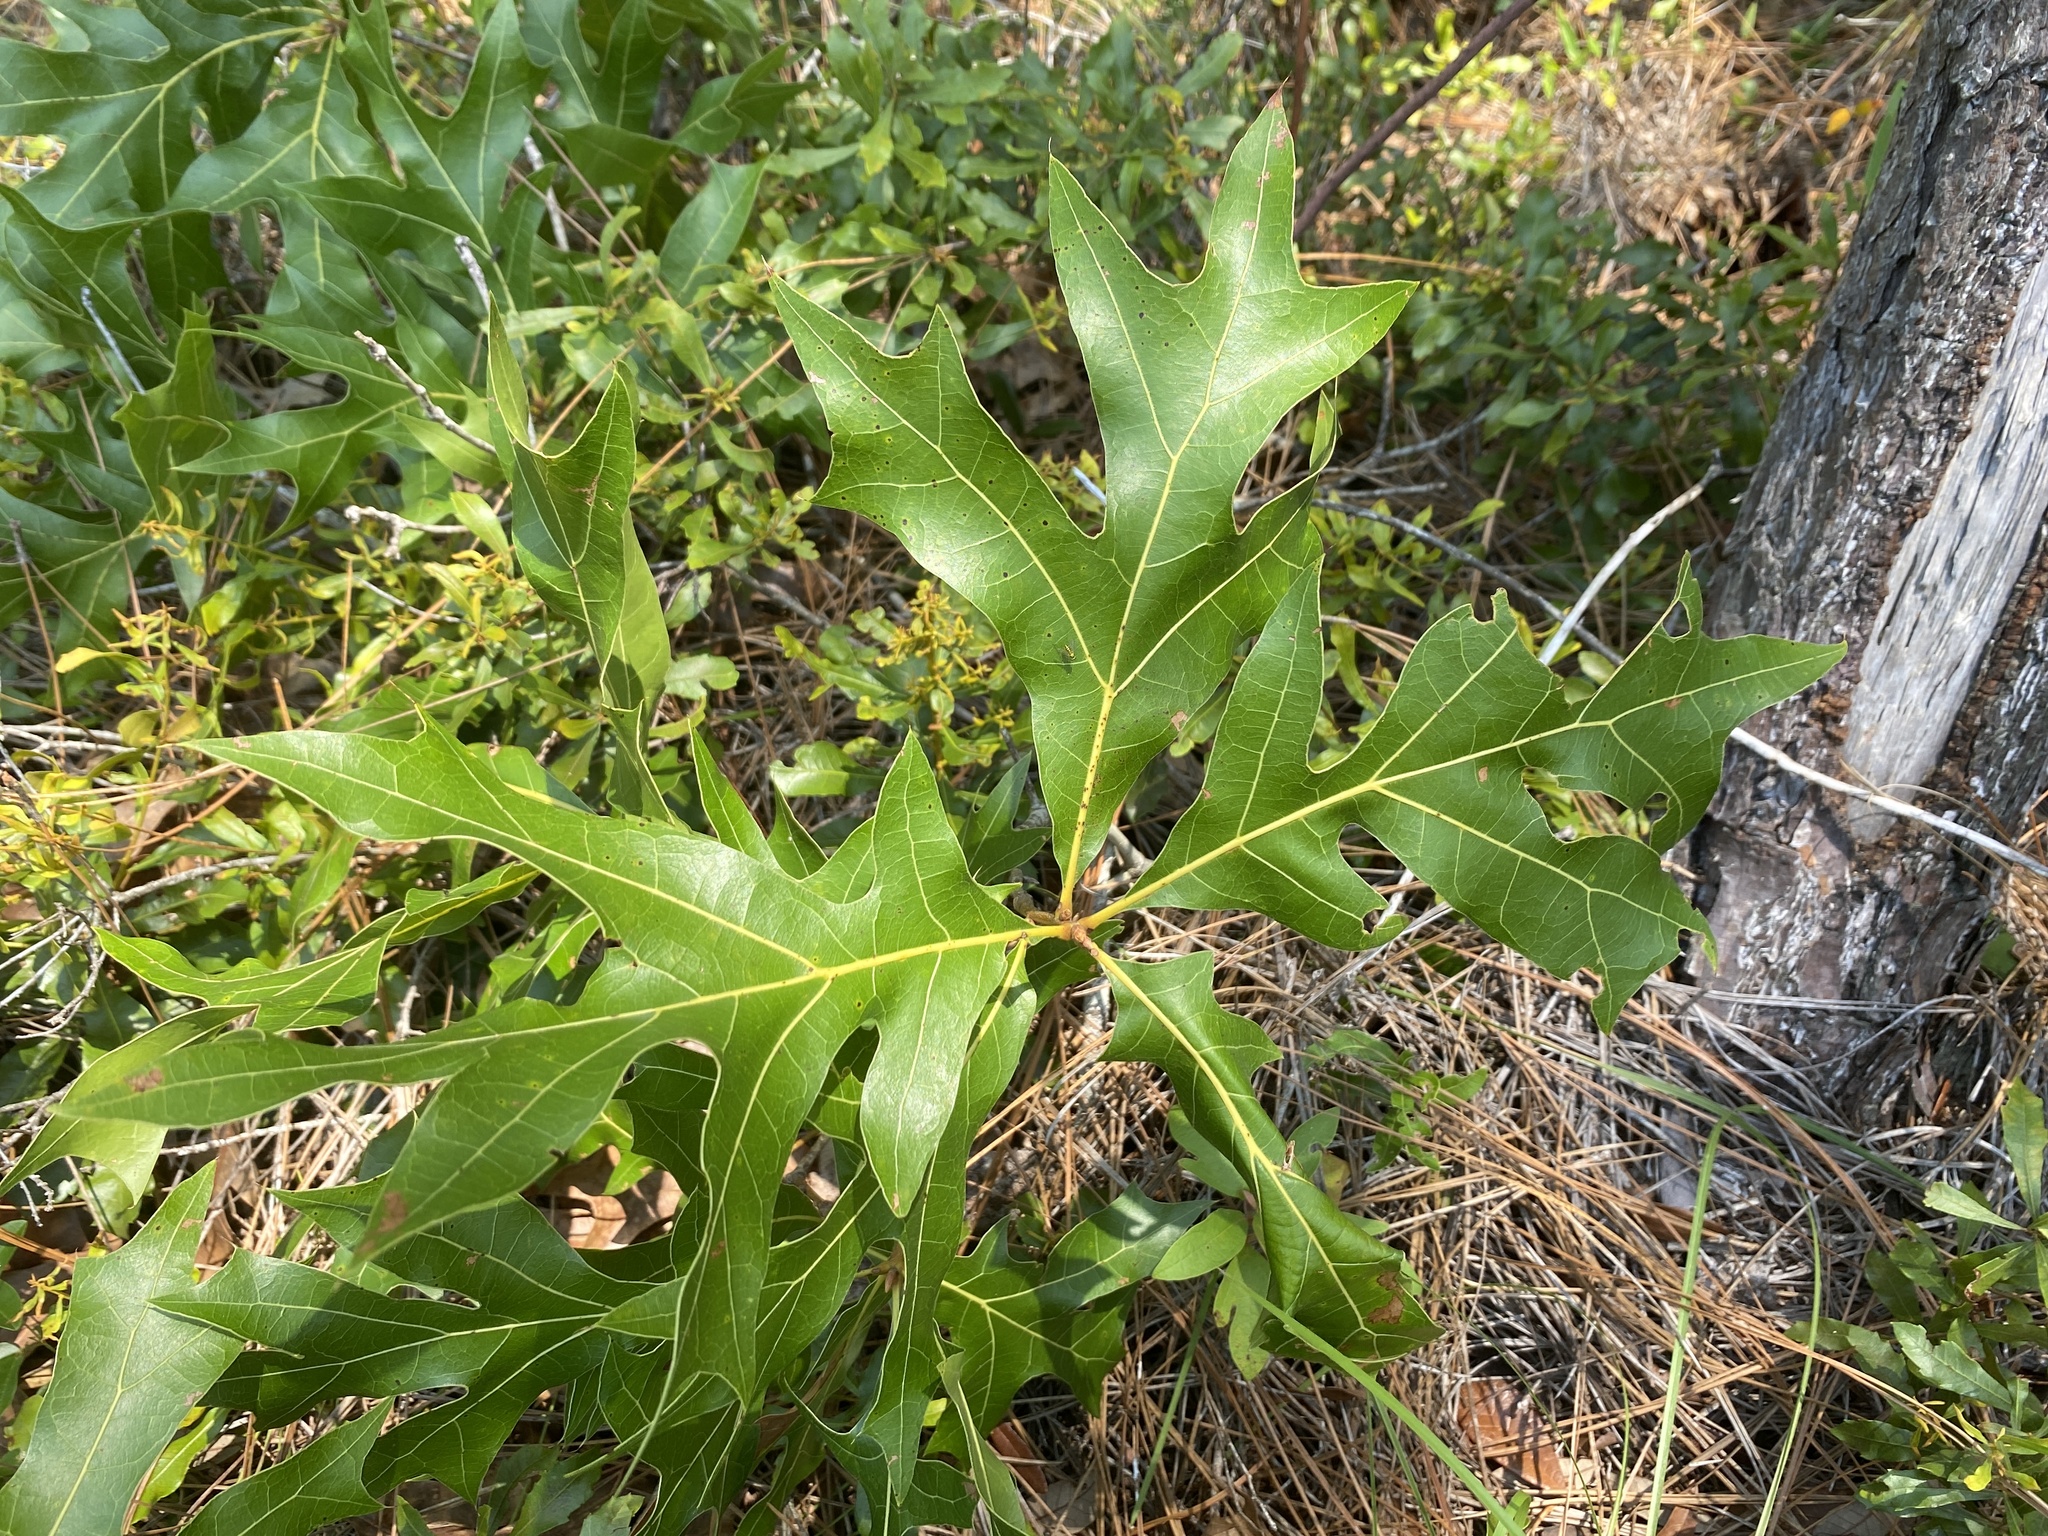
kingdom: Plantae
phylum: Tracheophyta
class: Magnoliopsida
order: Fagales
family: Fagaceae
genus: Quercus
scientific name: Quercus laevis
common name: Turkey oak
